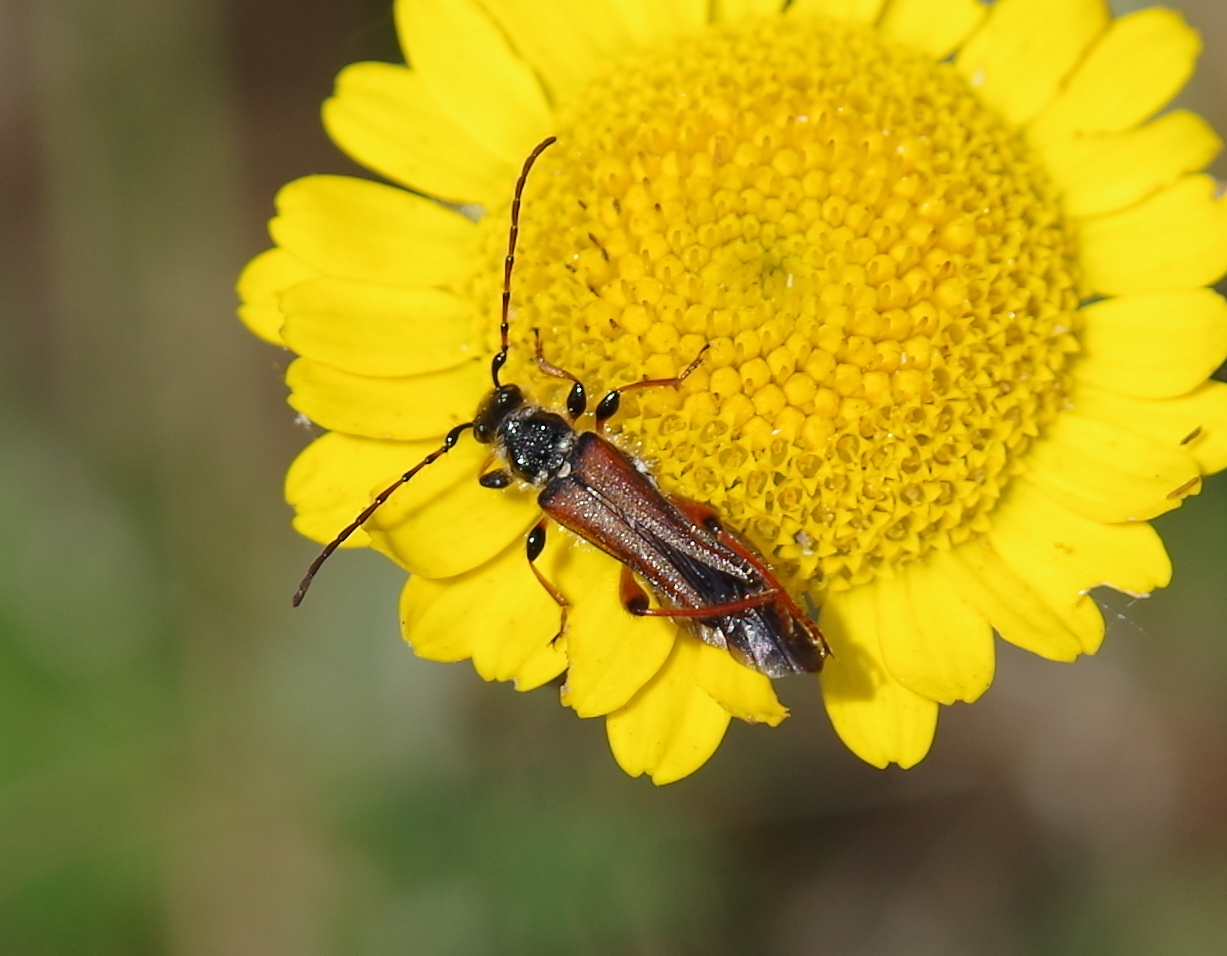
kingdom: Animalia
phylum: Arthropoda
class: Insecta
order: Coleoptera
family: Cerambycidae
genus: Stenopterus
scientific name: Stenopterus rufus
